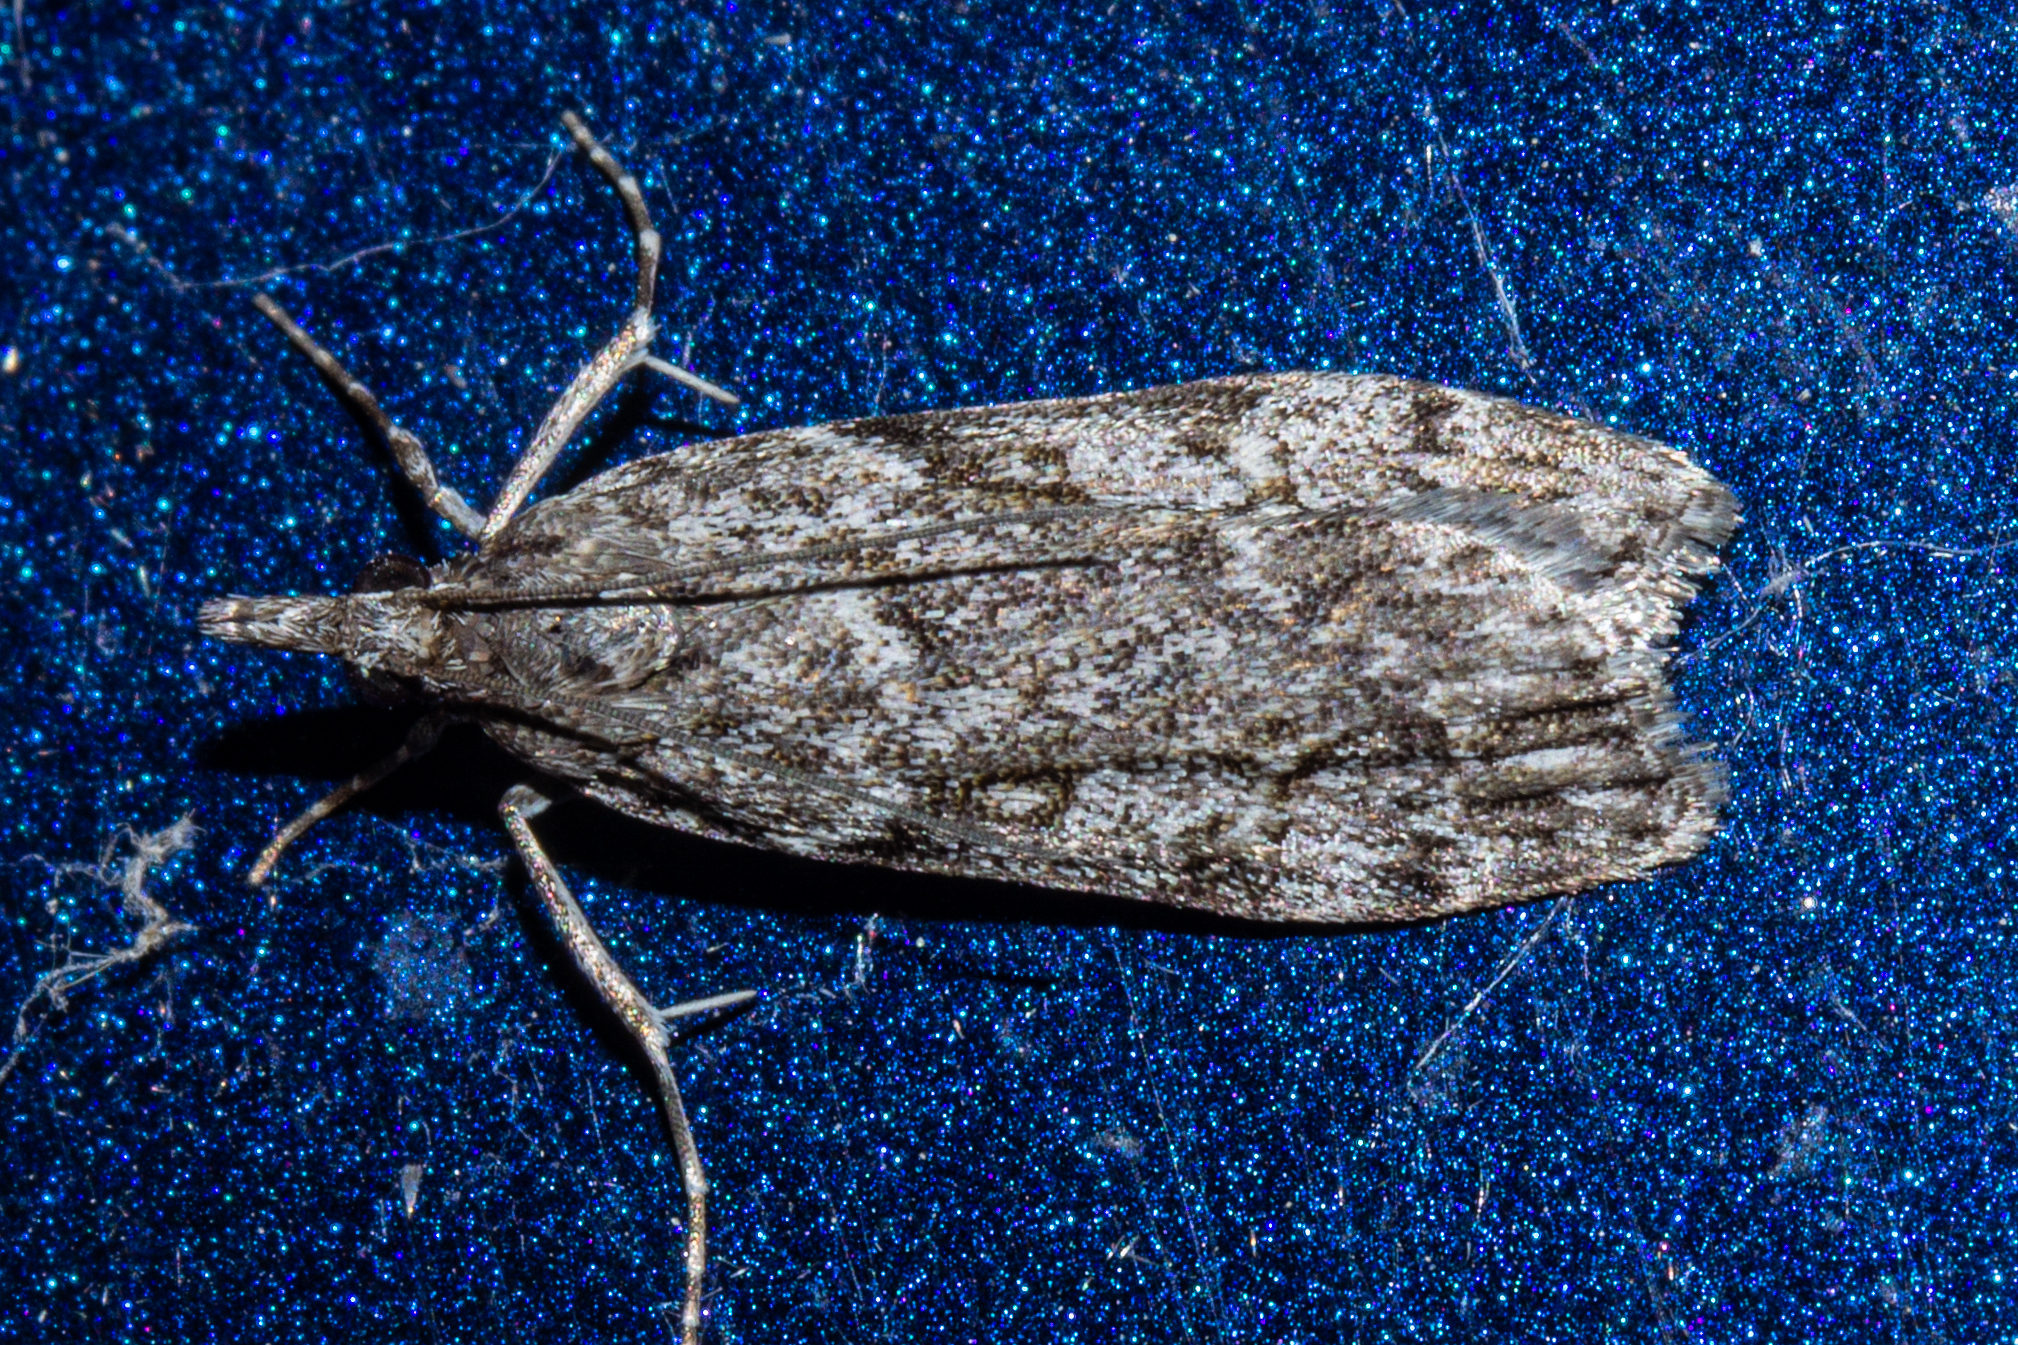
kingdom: Animalia
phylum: Arthropoda
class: Insecta
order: Lepidoptera
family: Crambidae
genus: Eudonia
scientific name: Eudonia cymatias
